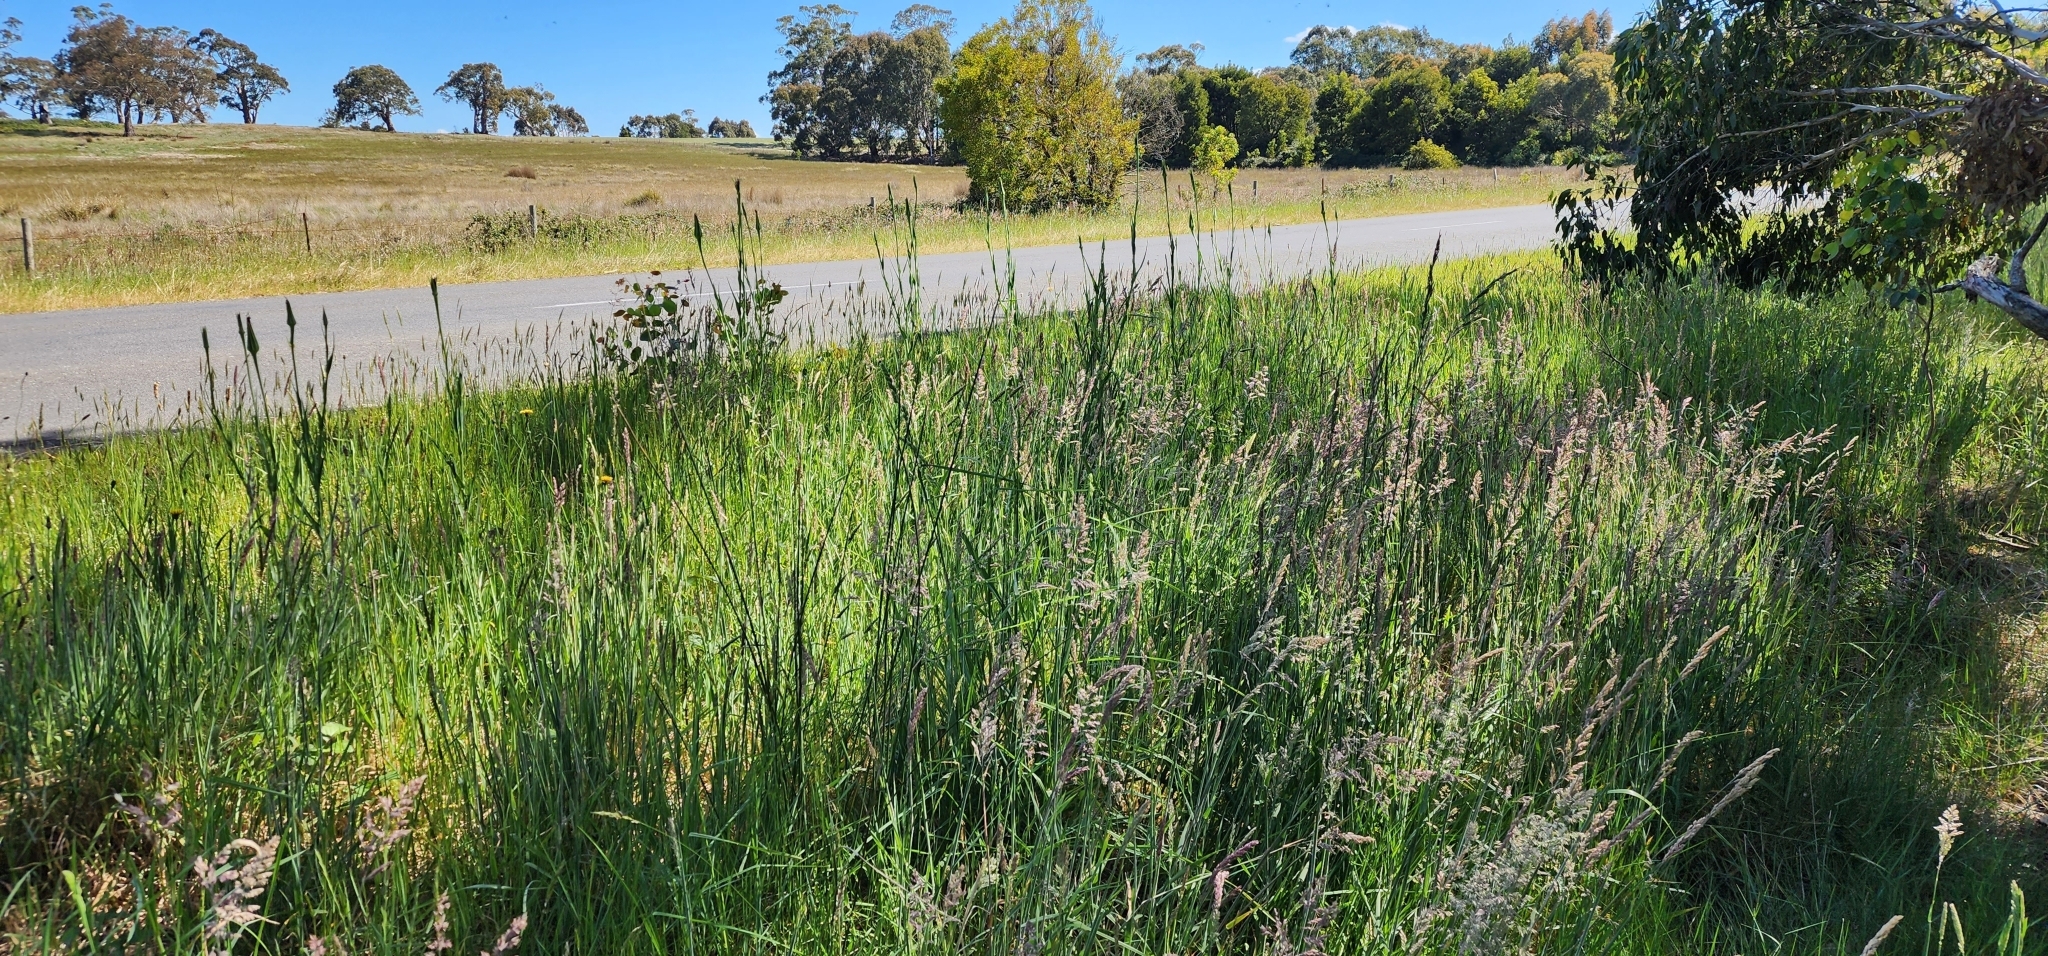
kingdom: Plantae
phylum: Tracheophyta
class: Magnoliopsida
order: Asterales
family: Asteraceae
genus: Tragopogon
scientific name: Tragopogon porrifolius
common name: Salsify
